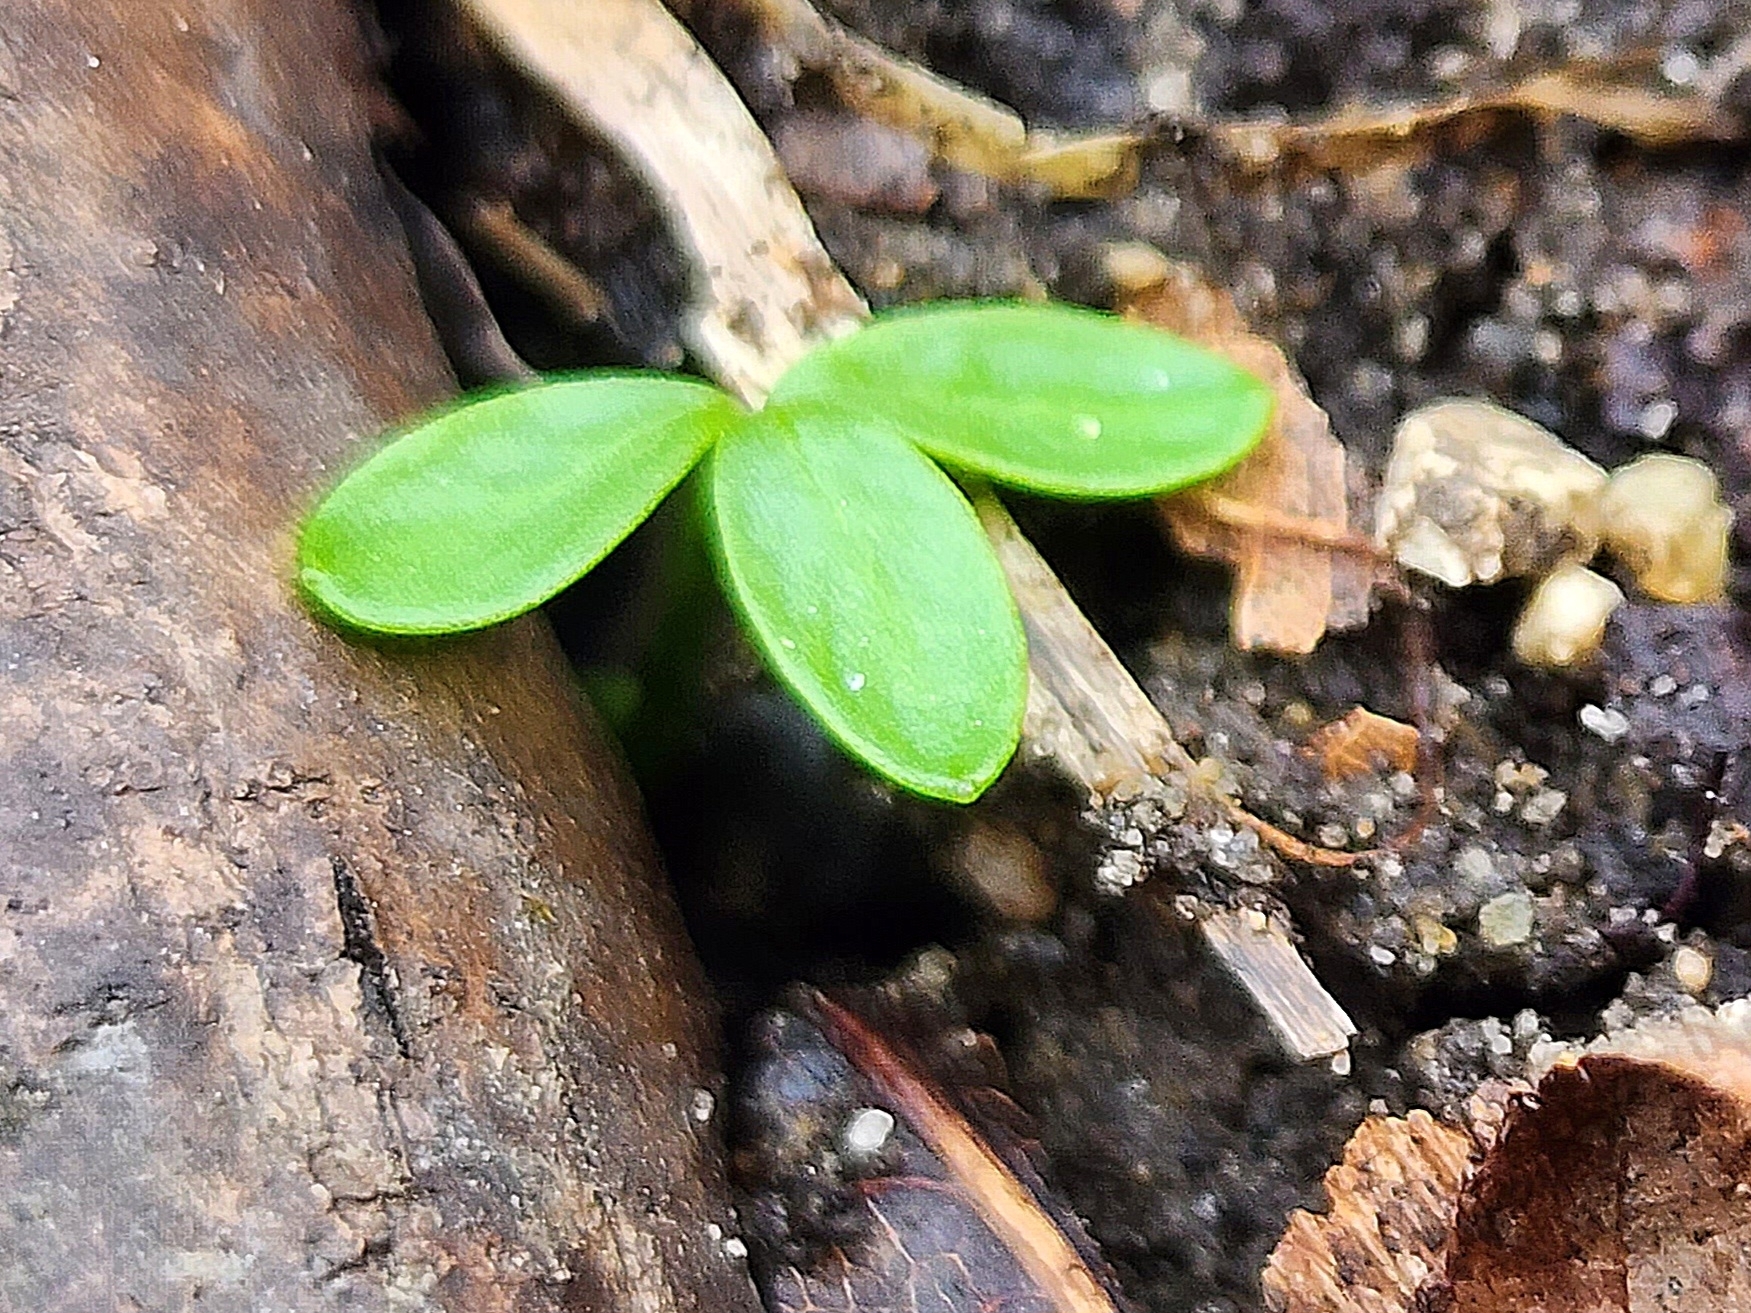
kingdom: Plantae
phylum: Tracheophyta
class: Magnoliopsida
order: Apiales
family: Apiaceae
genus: Erigenia
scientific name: Erigenia bulbosa
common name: Pepper-and-salt
